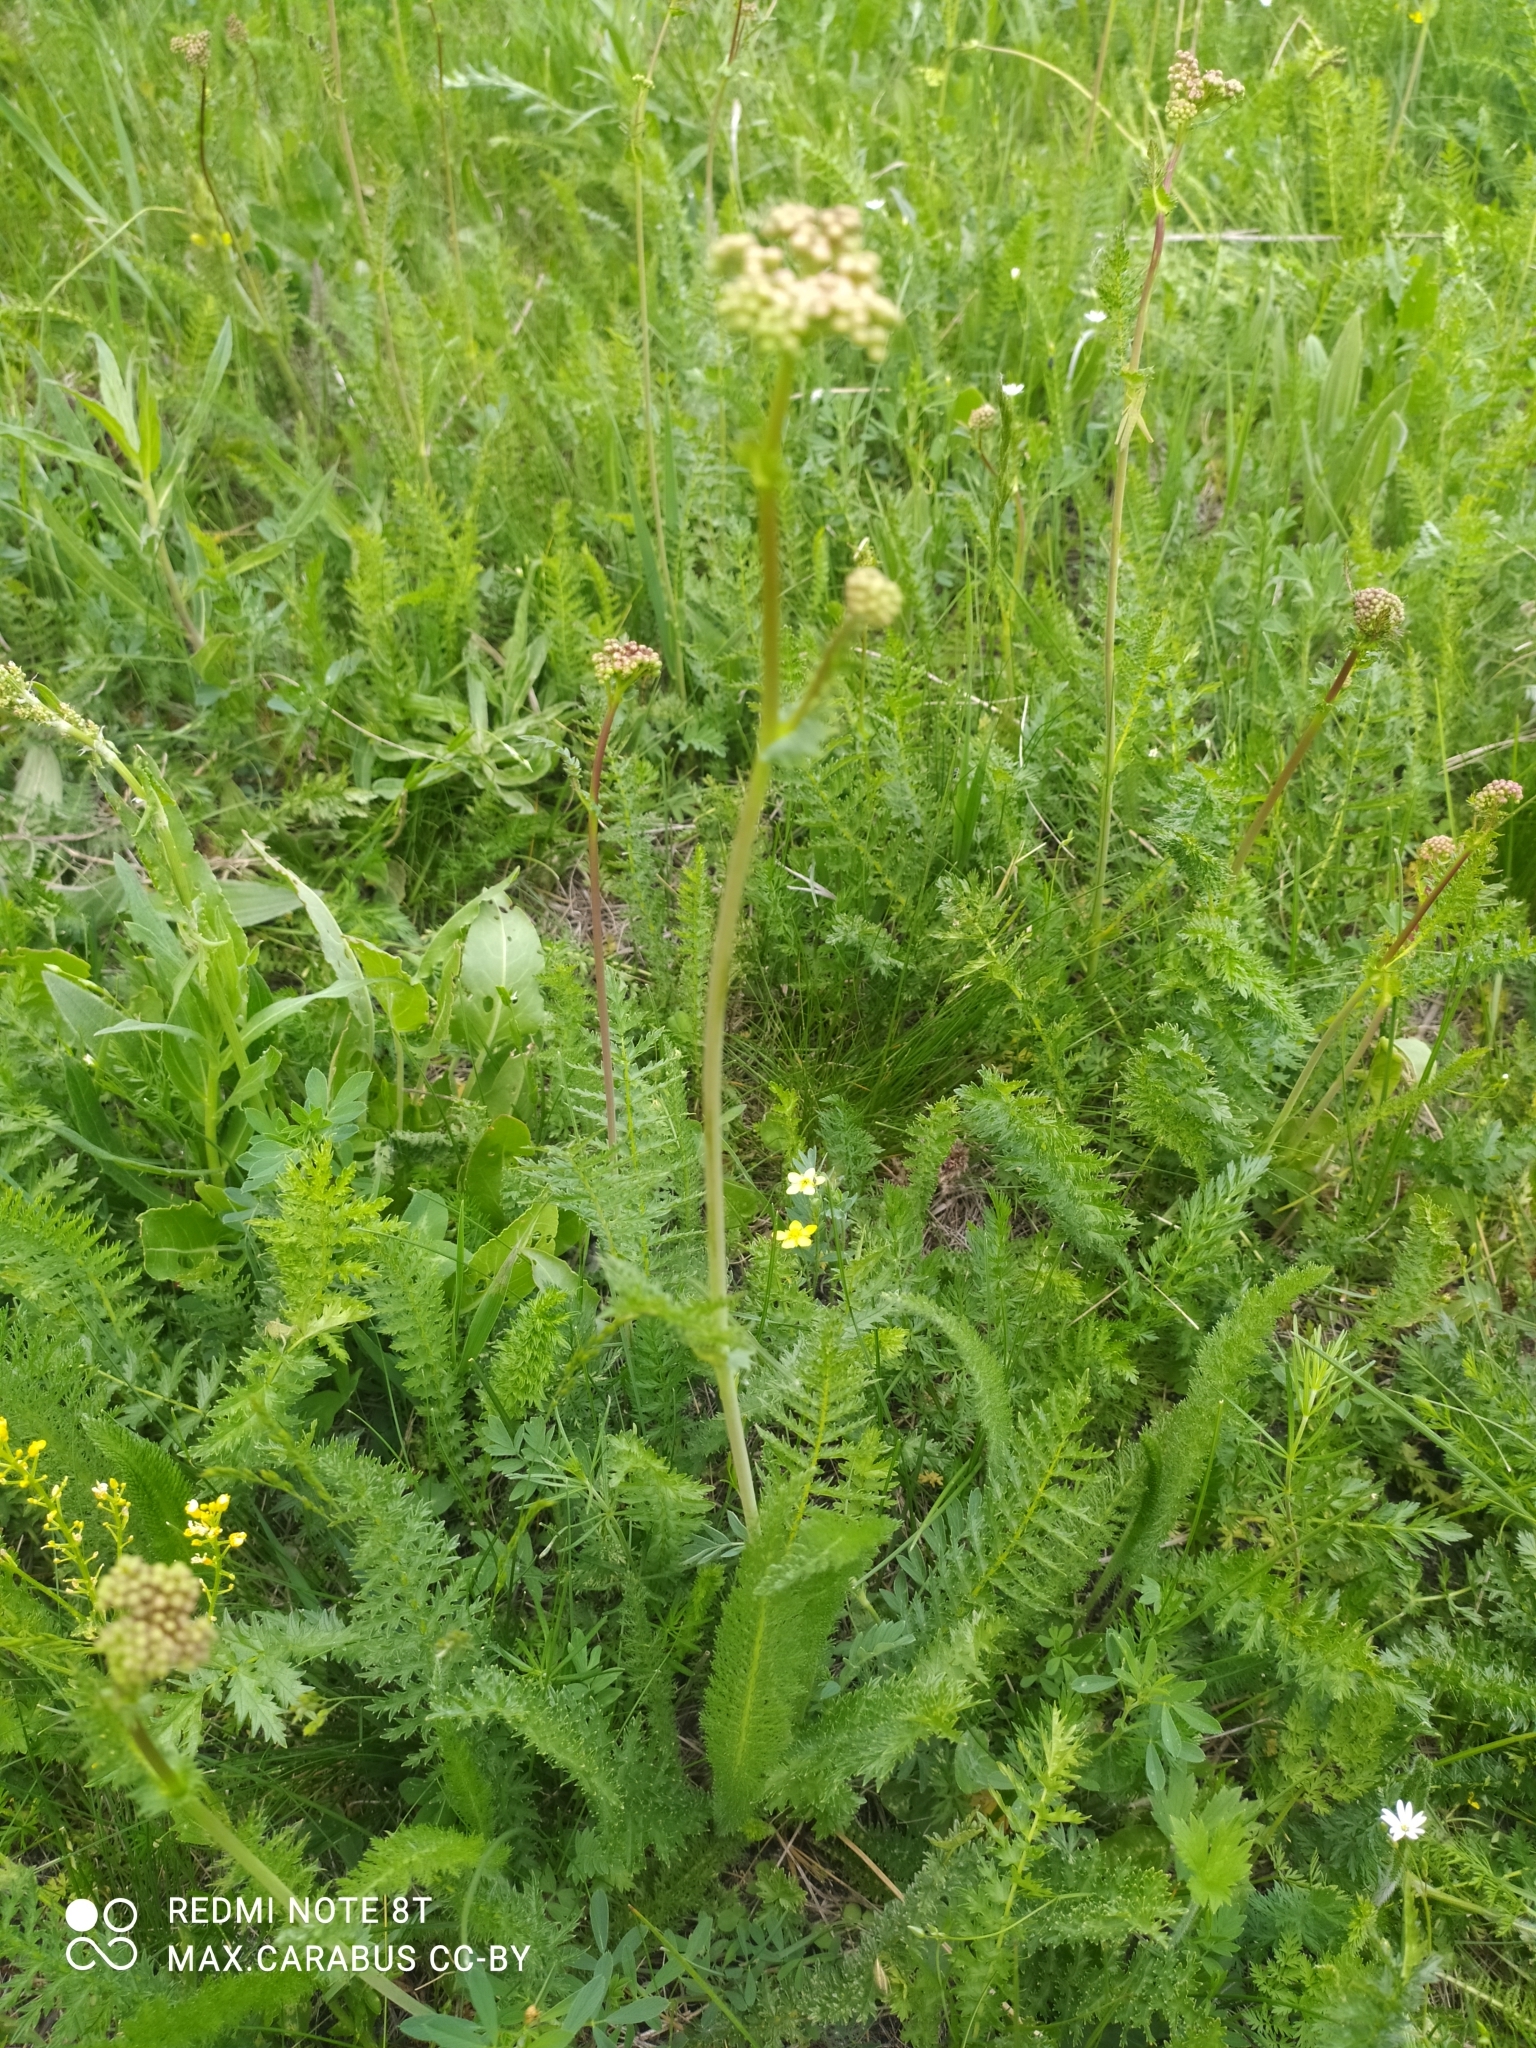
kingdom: Plantae
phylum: Tracheophyta
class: Magnoliopsida
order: Rosales
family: Rosaceae
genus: Filipendula
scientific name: Filipendula vulgaris
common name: Dropwort
